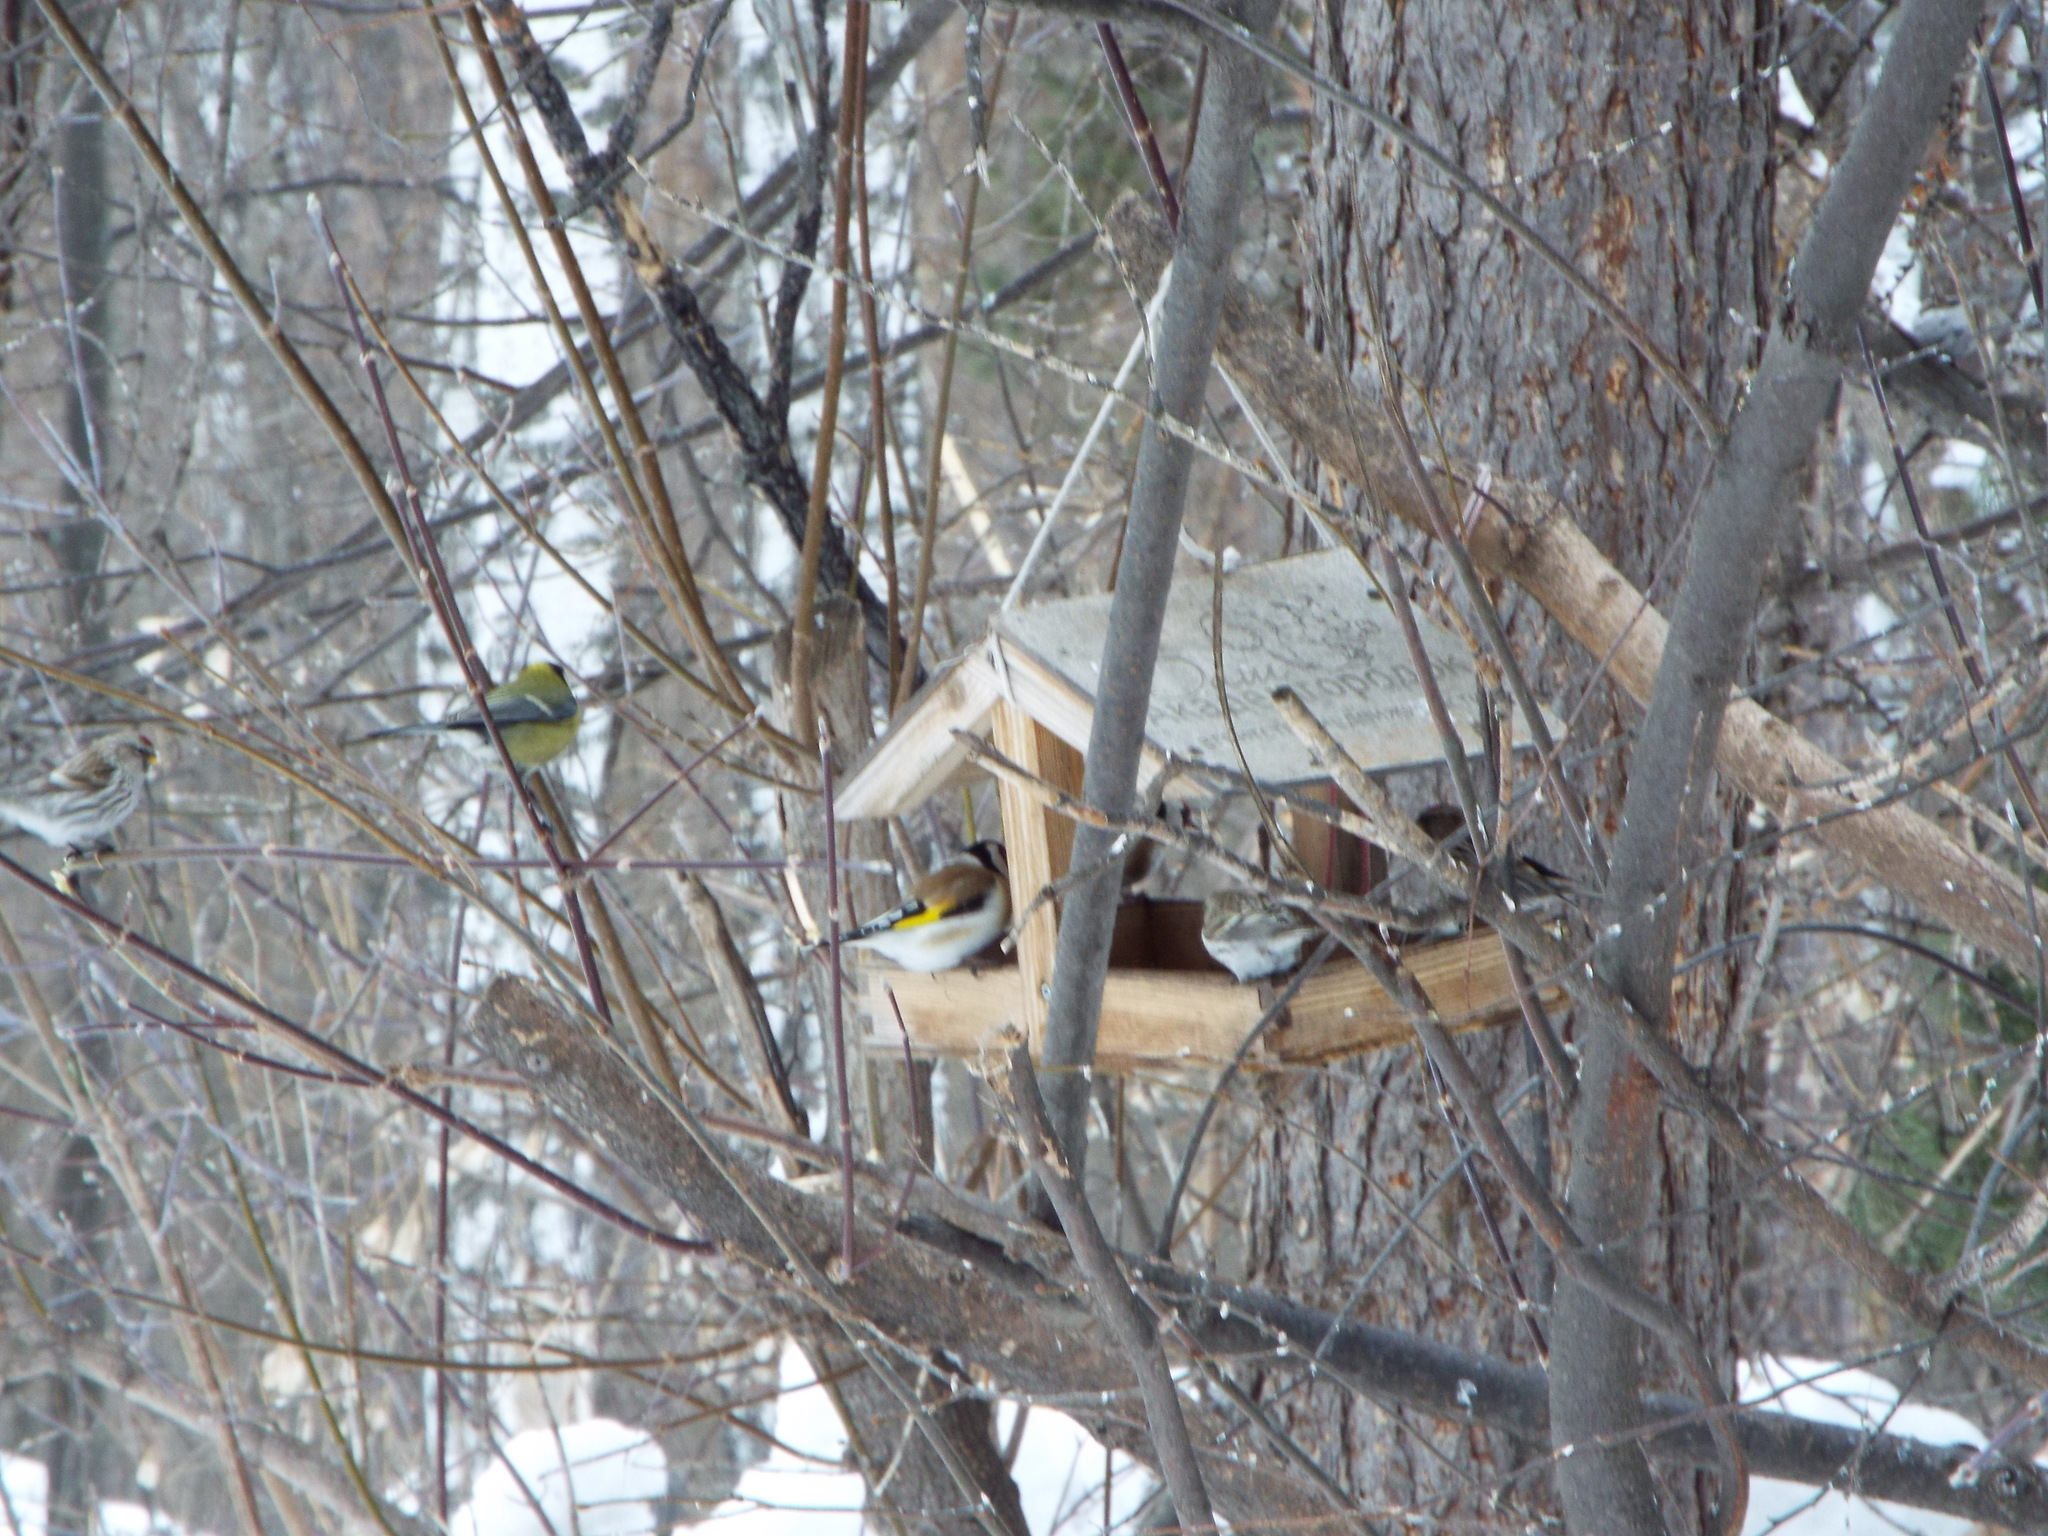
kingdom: Animalia
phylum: Chordata
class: Aves
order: Passeriformes
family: Fringillidae
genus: Carduelis
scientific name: Carduelis carduelis
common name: European goldfinch
